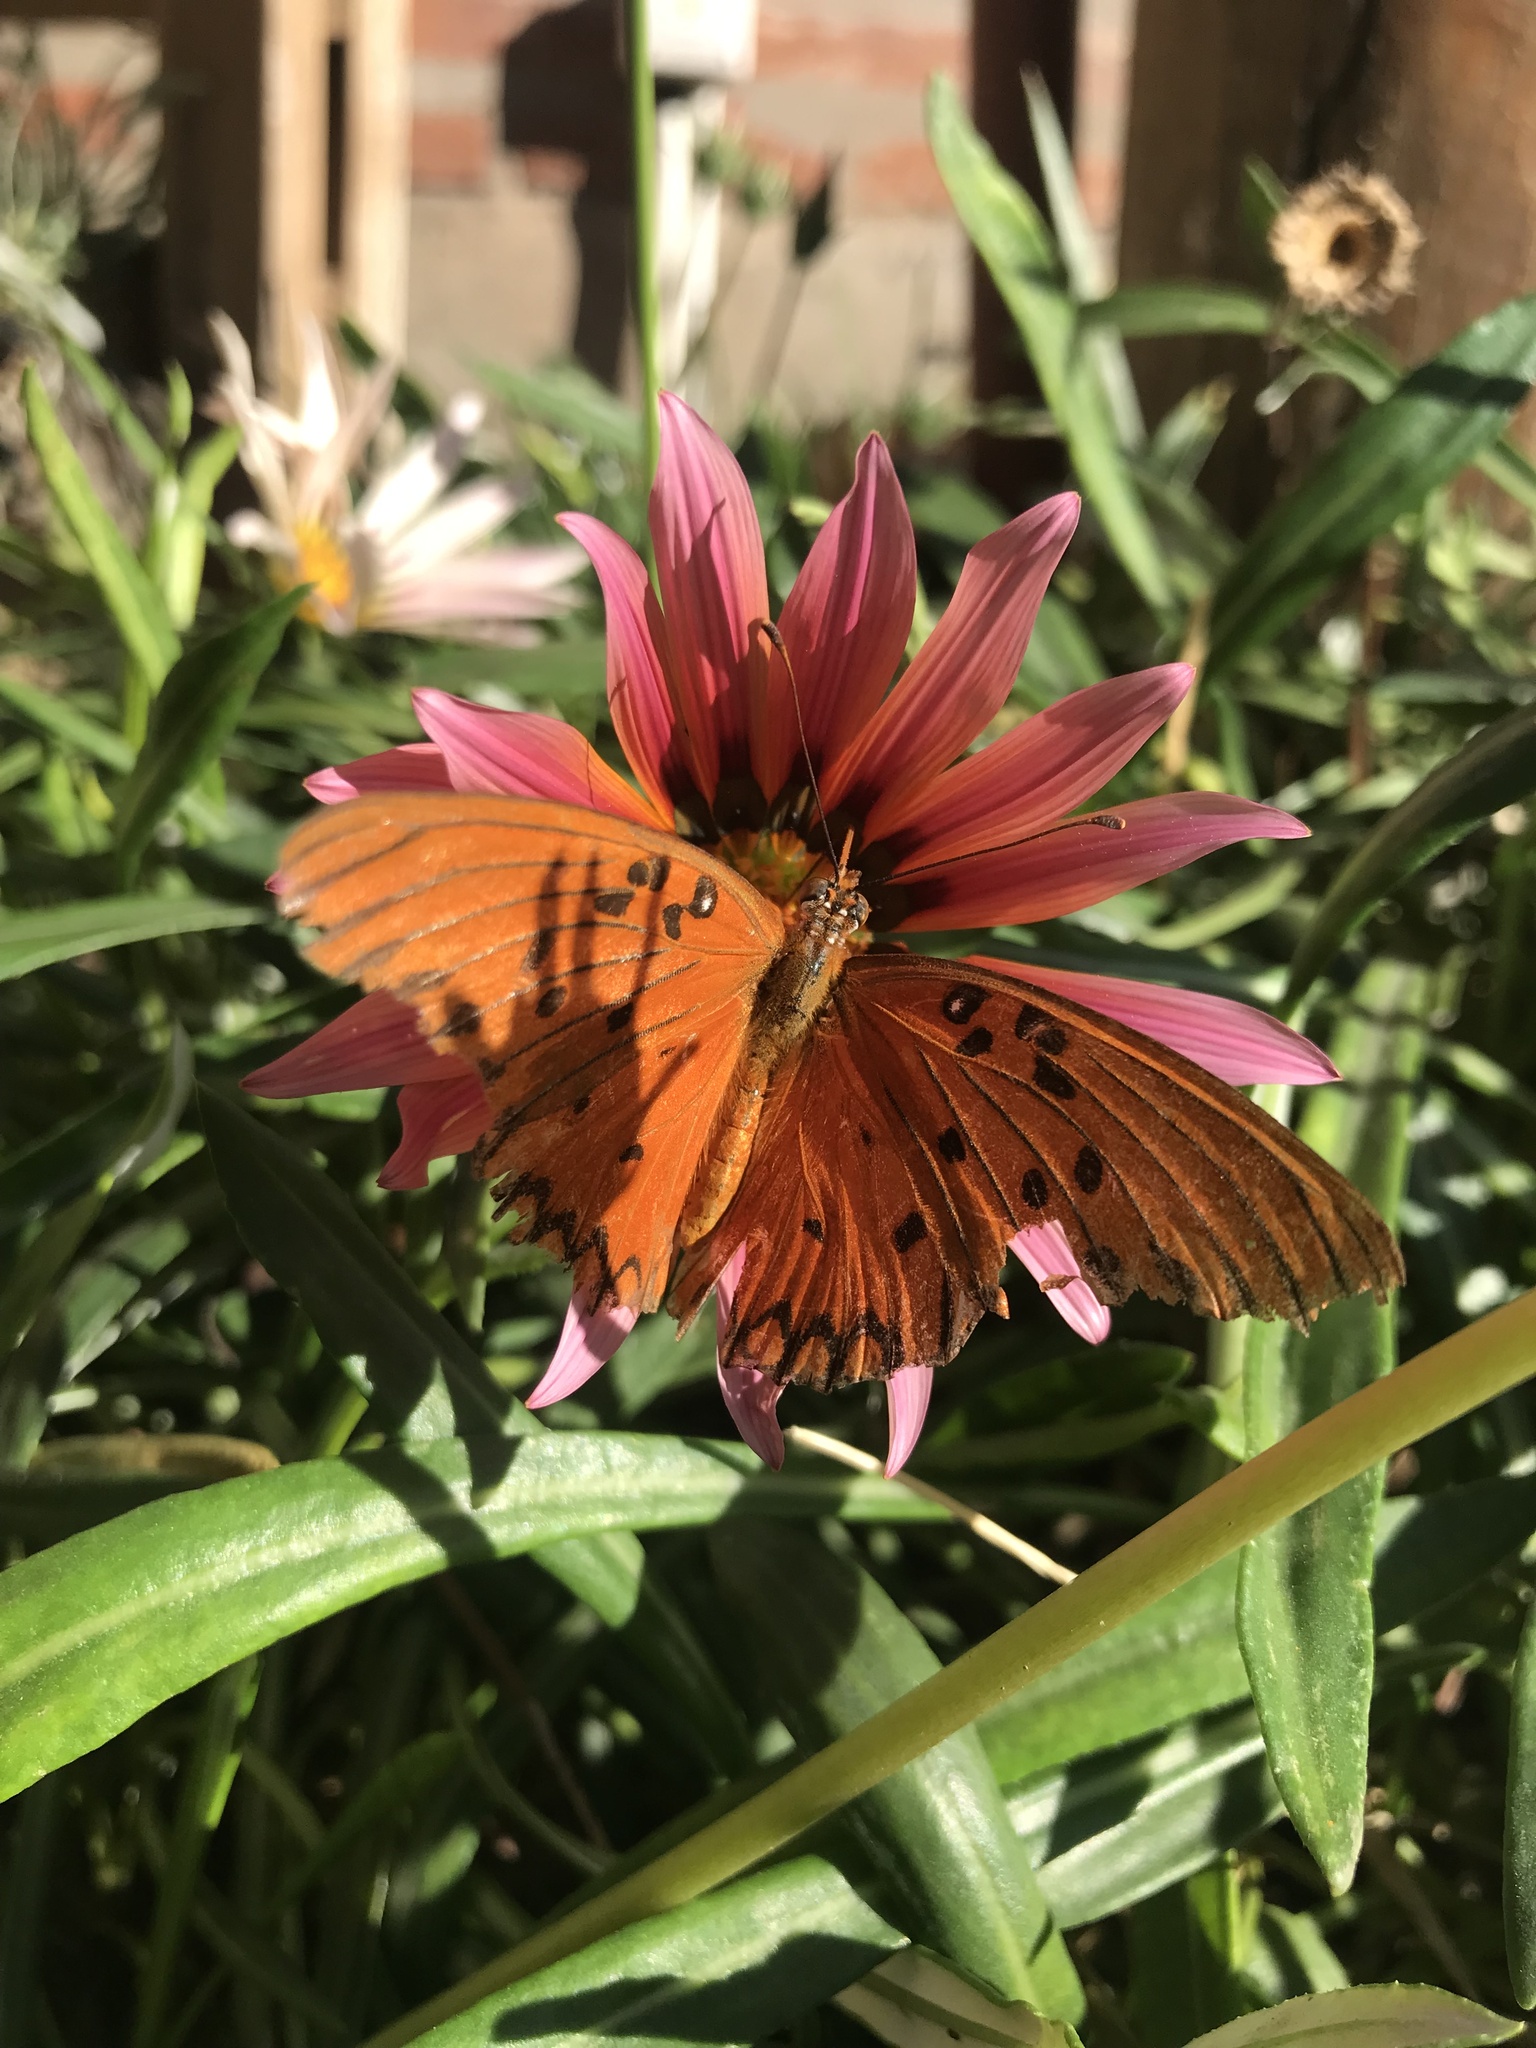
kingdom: Animalia
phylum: Arthropoda
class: Insecta
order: Lepidoptera
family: Nymphalidae
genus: Dione
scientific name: Dione vanillae
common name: Gulf fritillary
